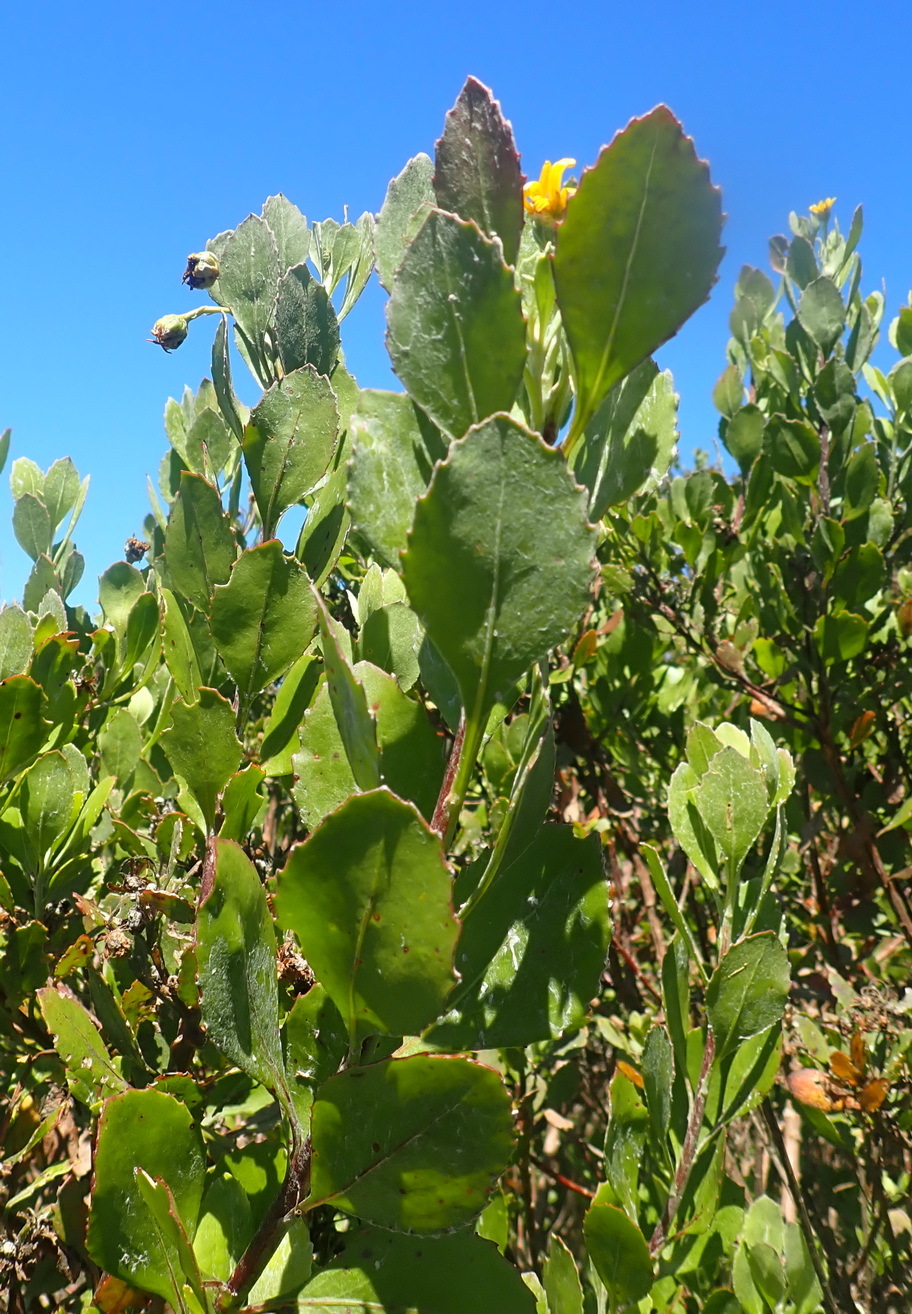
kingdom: Plantae
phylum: Tracheophyta
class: Magnoliopsida
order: Asterales
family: Asteraceae
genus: Osteospermum
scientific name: Osteospermum moniliferum
